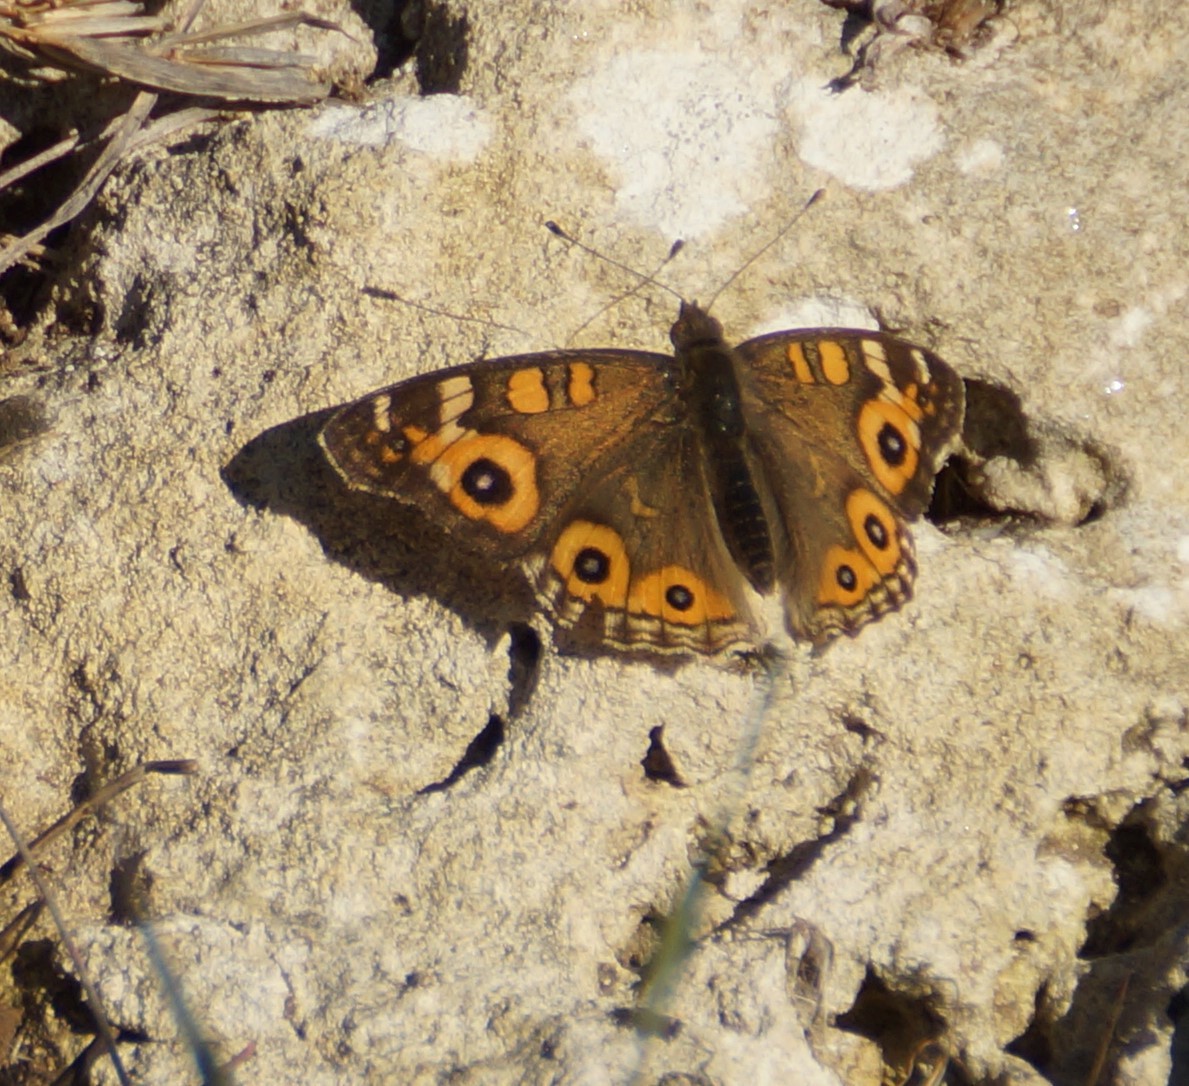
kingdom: Animalia
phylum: Arthropoda
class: Insecta
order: Lepidoptera
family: Nymphalidae
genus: Junonia
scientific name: Junonia villida
